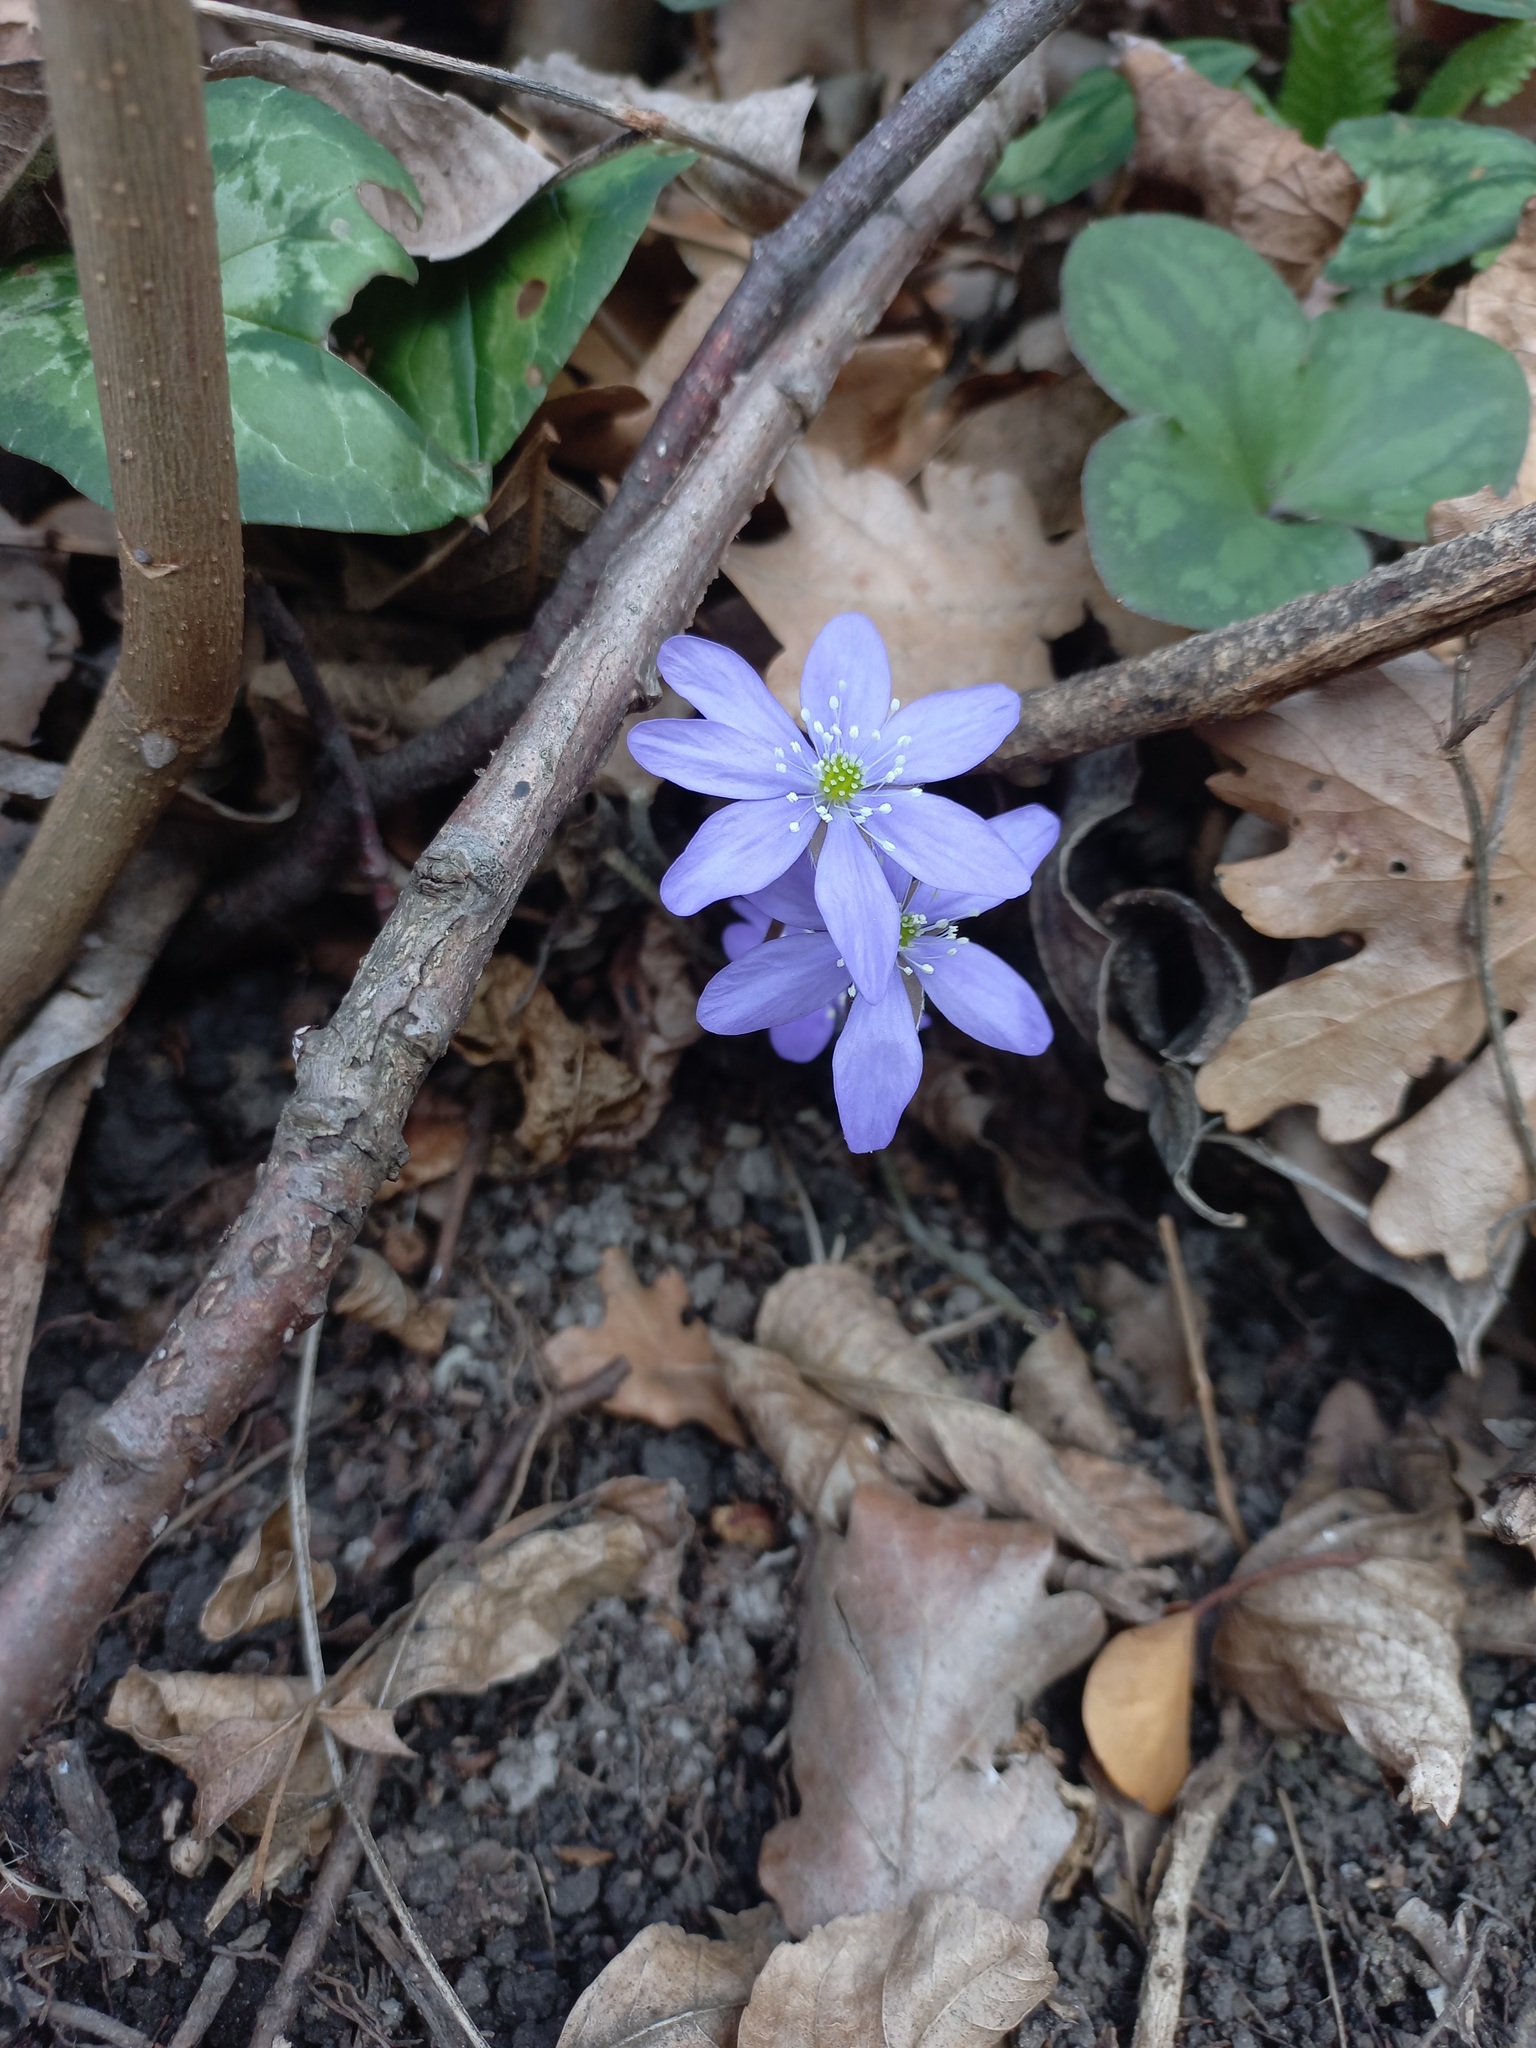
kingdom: Plantae
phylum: Tracheophyta
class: Magnoliopsida
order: Ranunculales
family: Ranunculaceae
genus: Hepatica
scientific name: Hepatica nobilis
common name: Liverleaf
